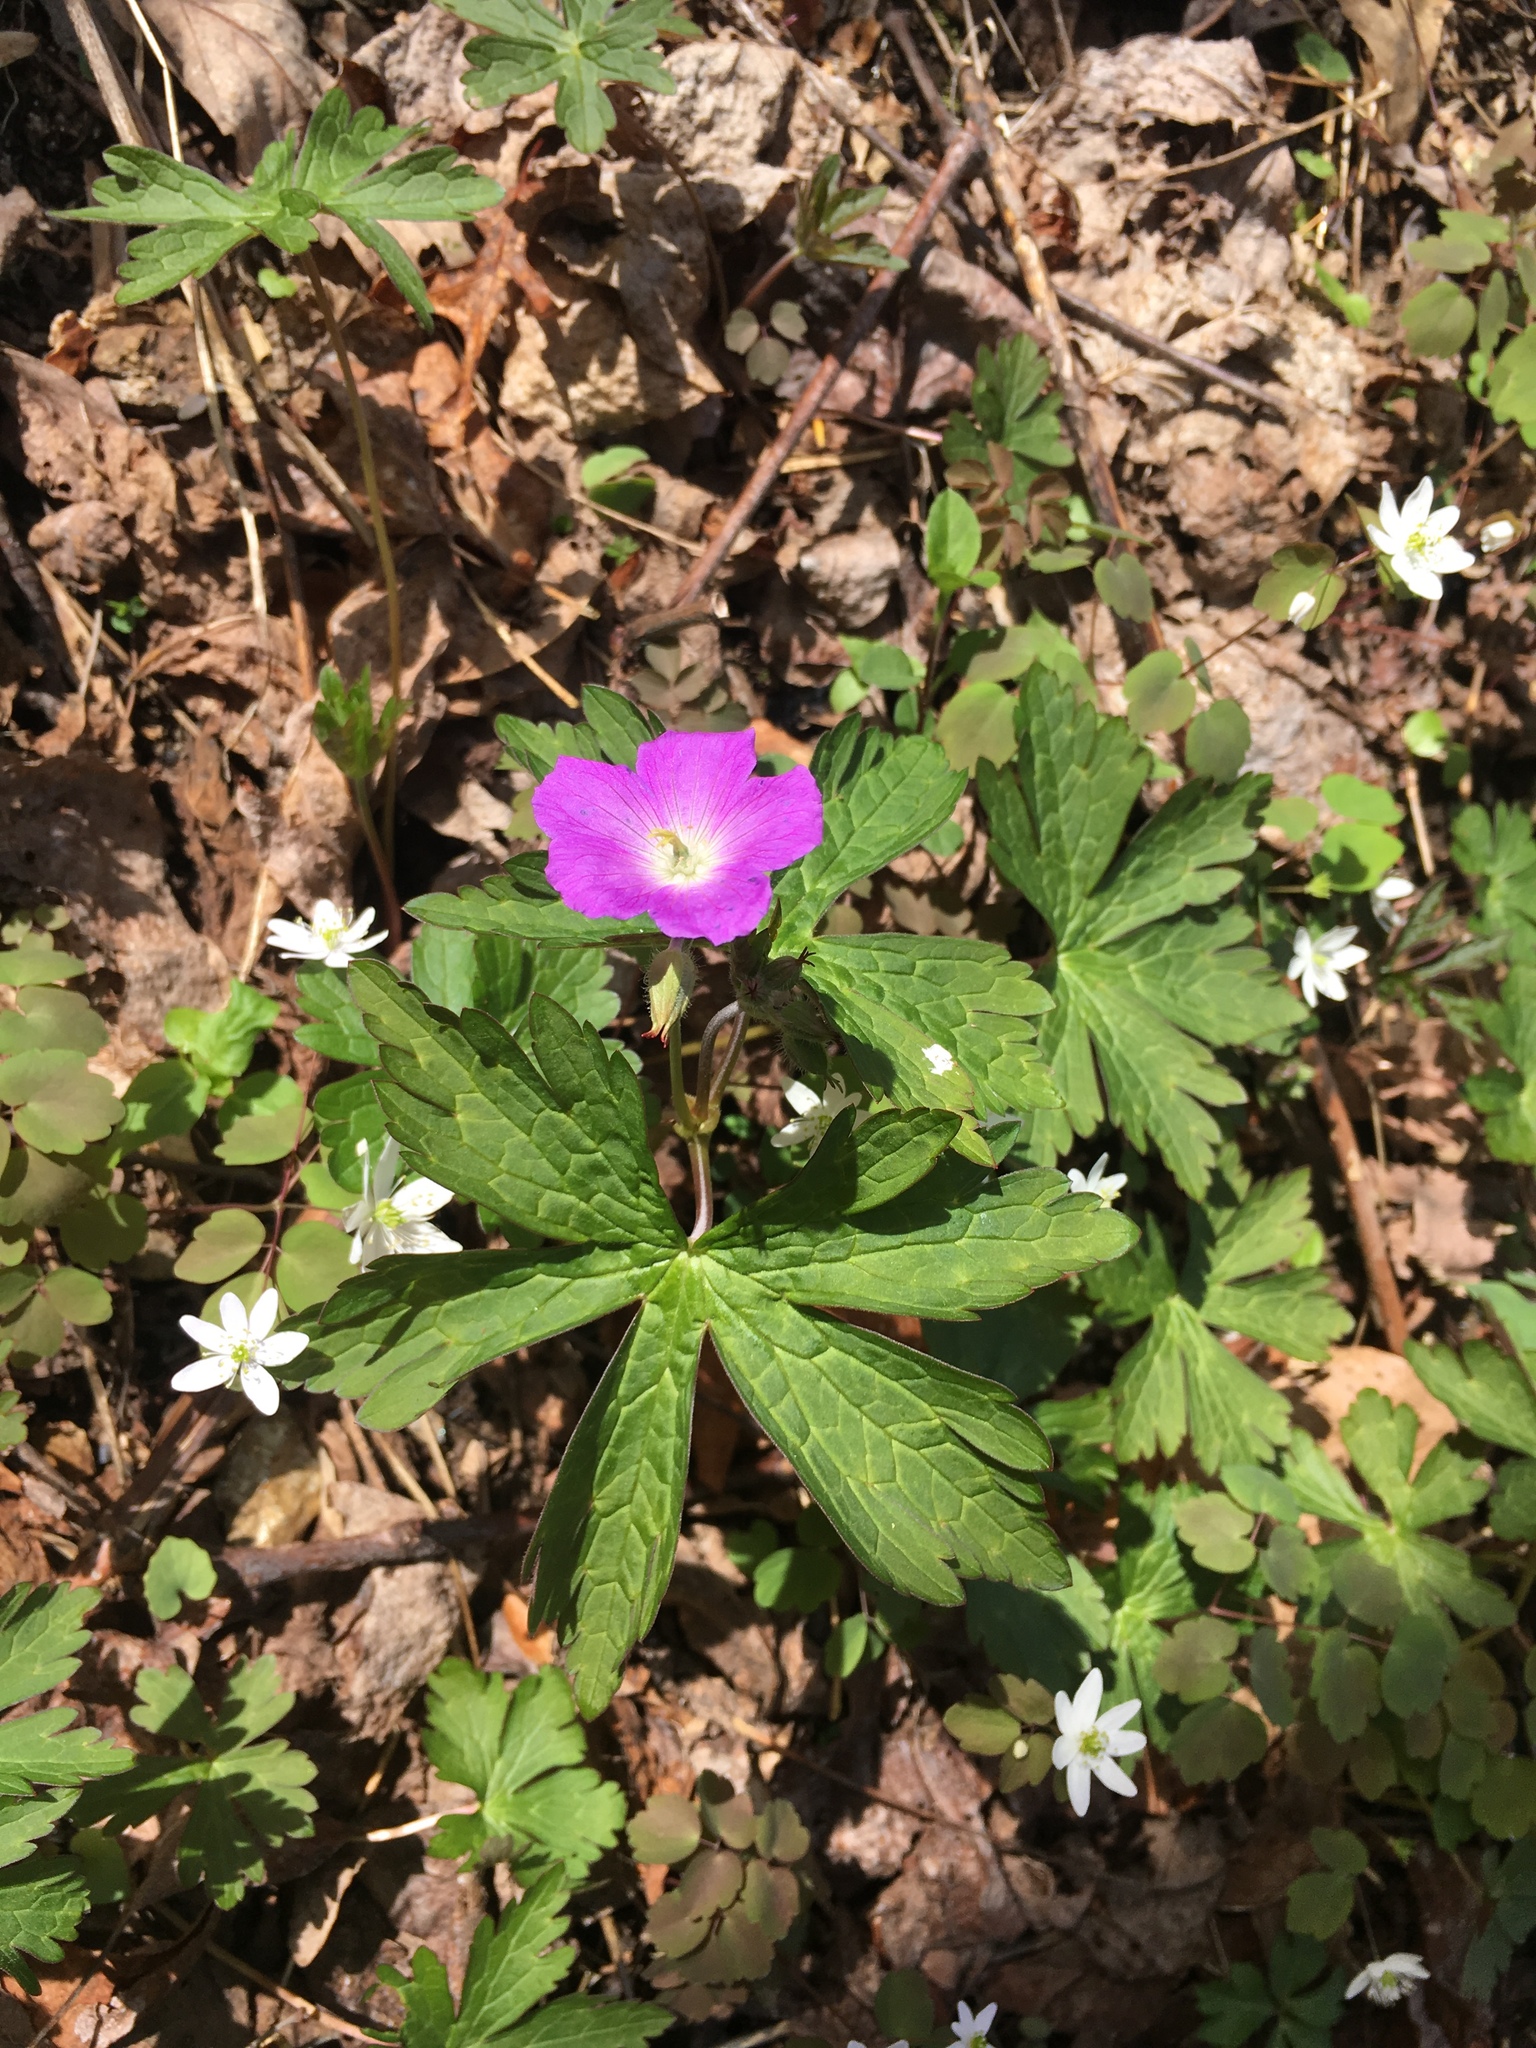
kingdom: Plantae
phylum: Tracheophyta
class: Magnoliopsida
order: Geraniales
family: Geraniaceae
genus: Geranium
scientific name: Geranium maculatum
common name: Spotted geranium
